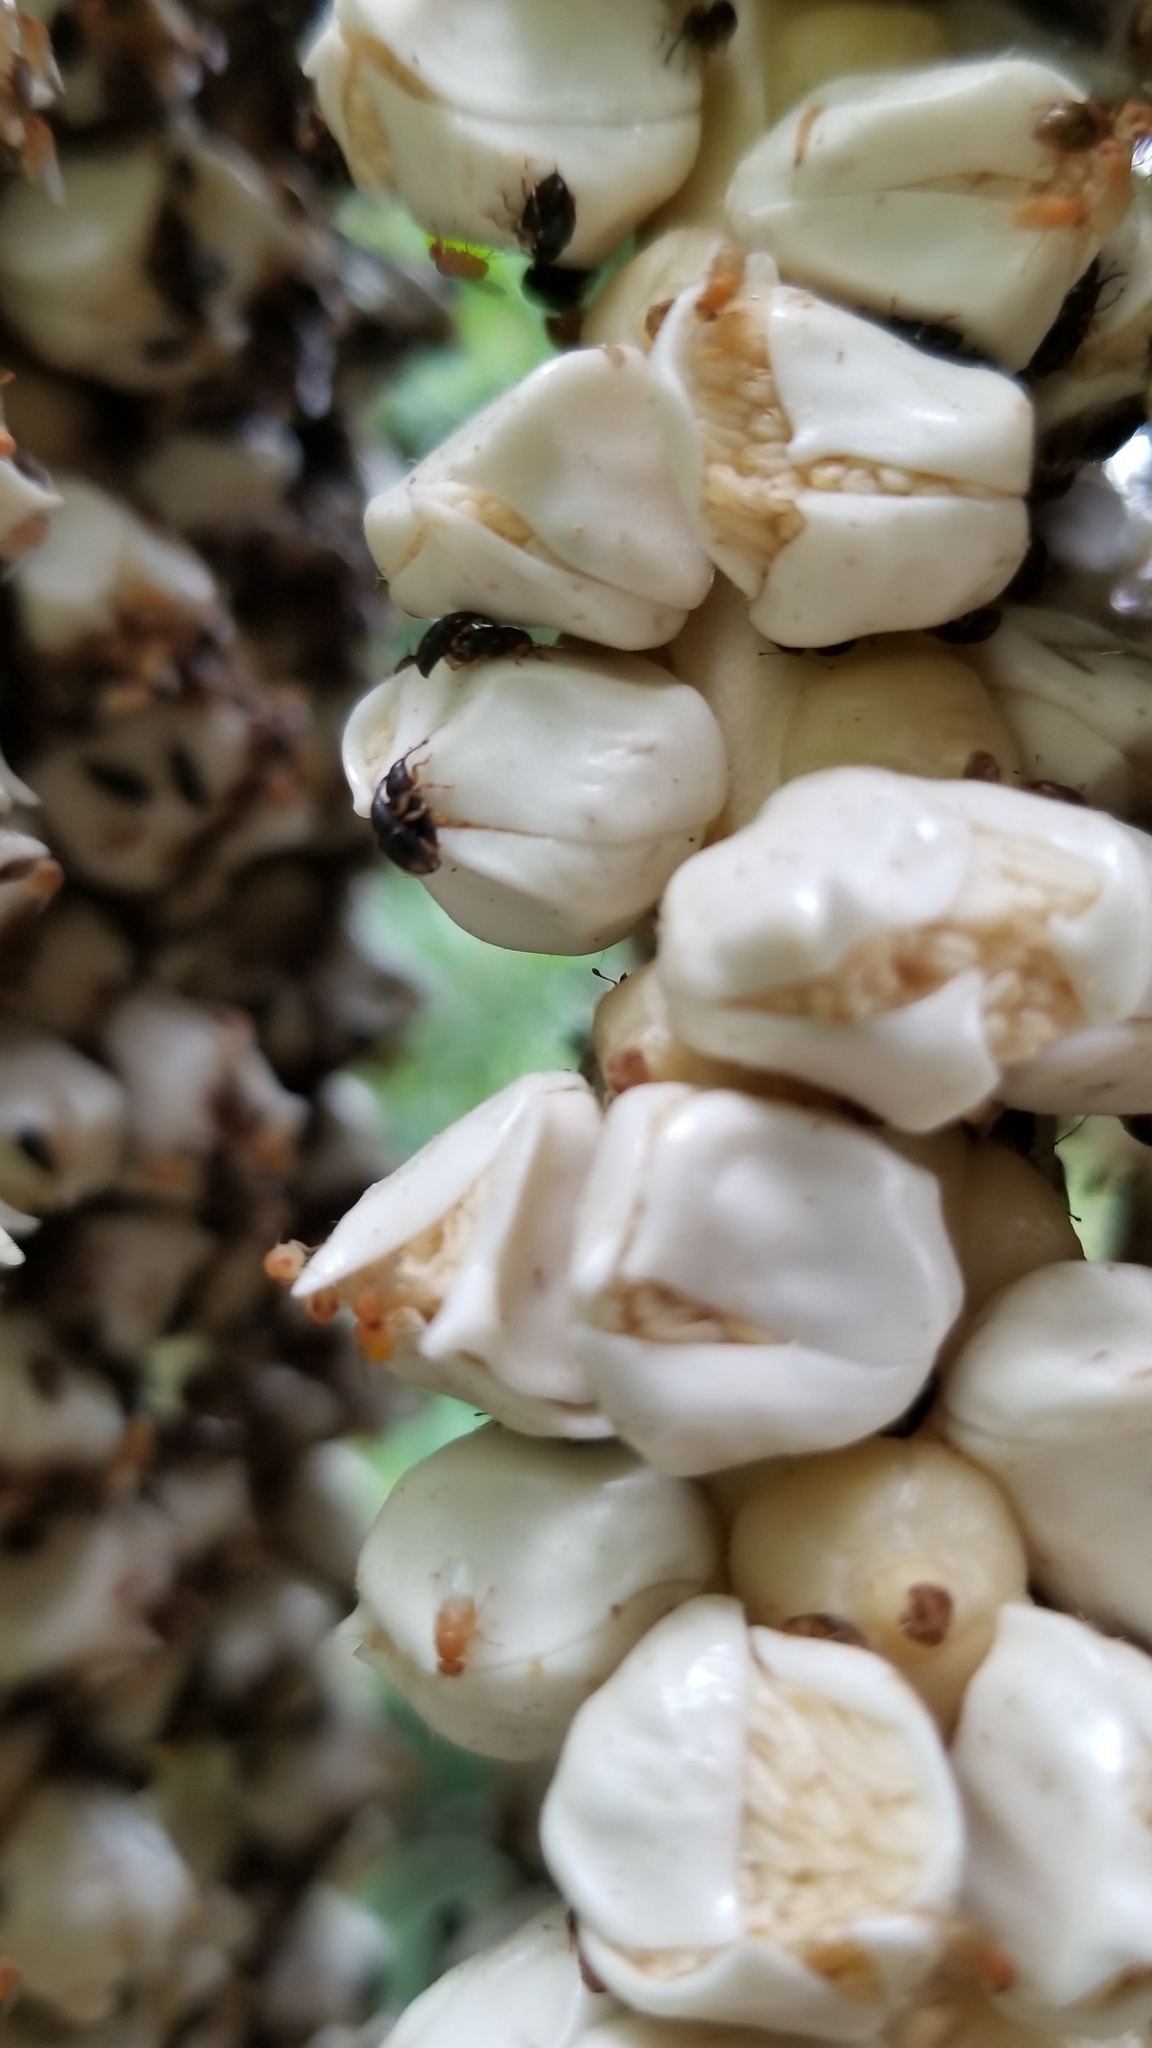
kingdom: Plantae
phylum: Tracheophyta
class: Liliopsida
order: Arecales
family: Arecaceae
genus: Socratea
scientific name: Socratea exorrhiza
